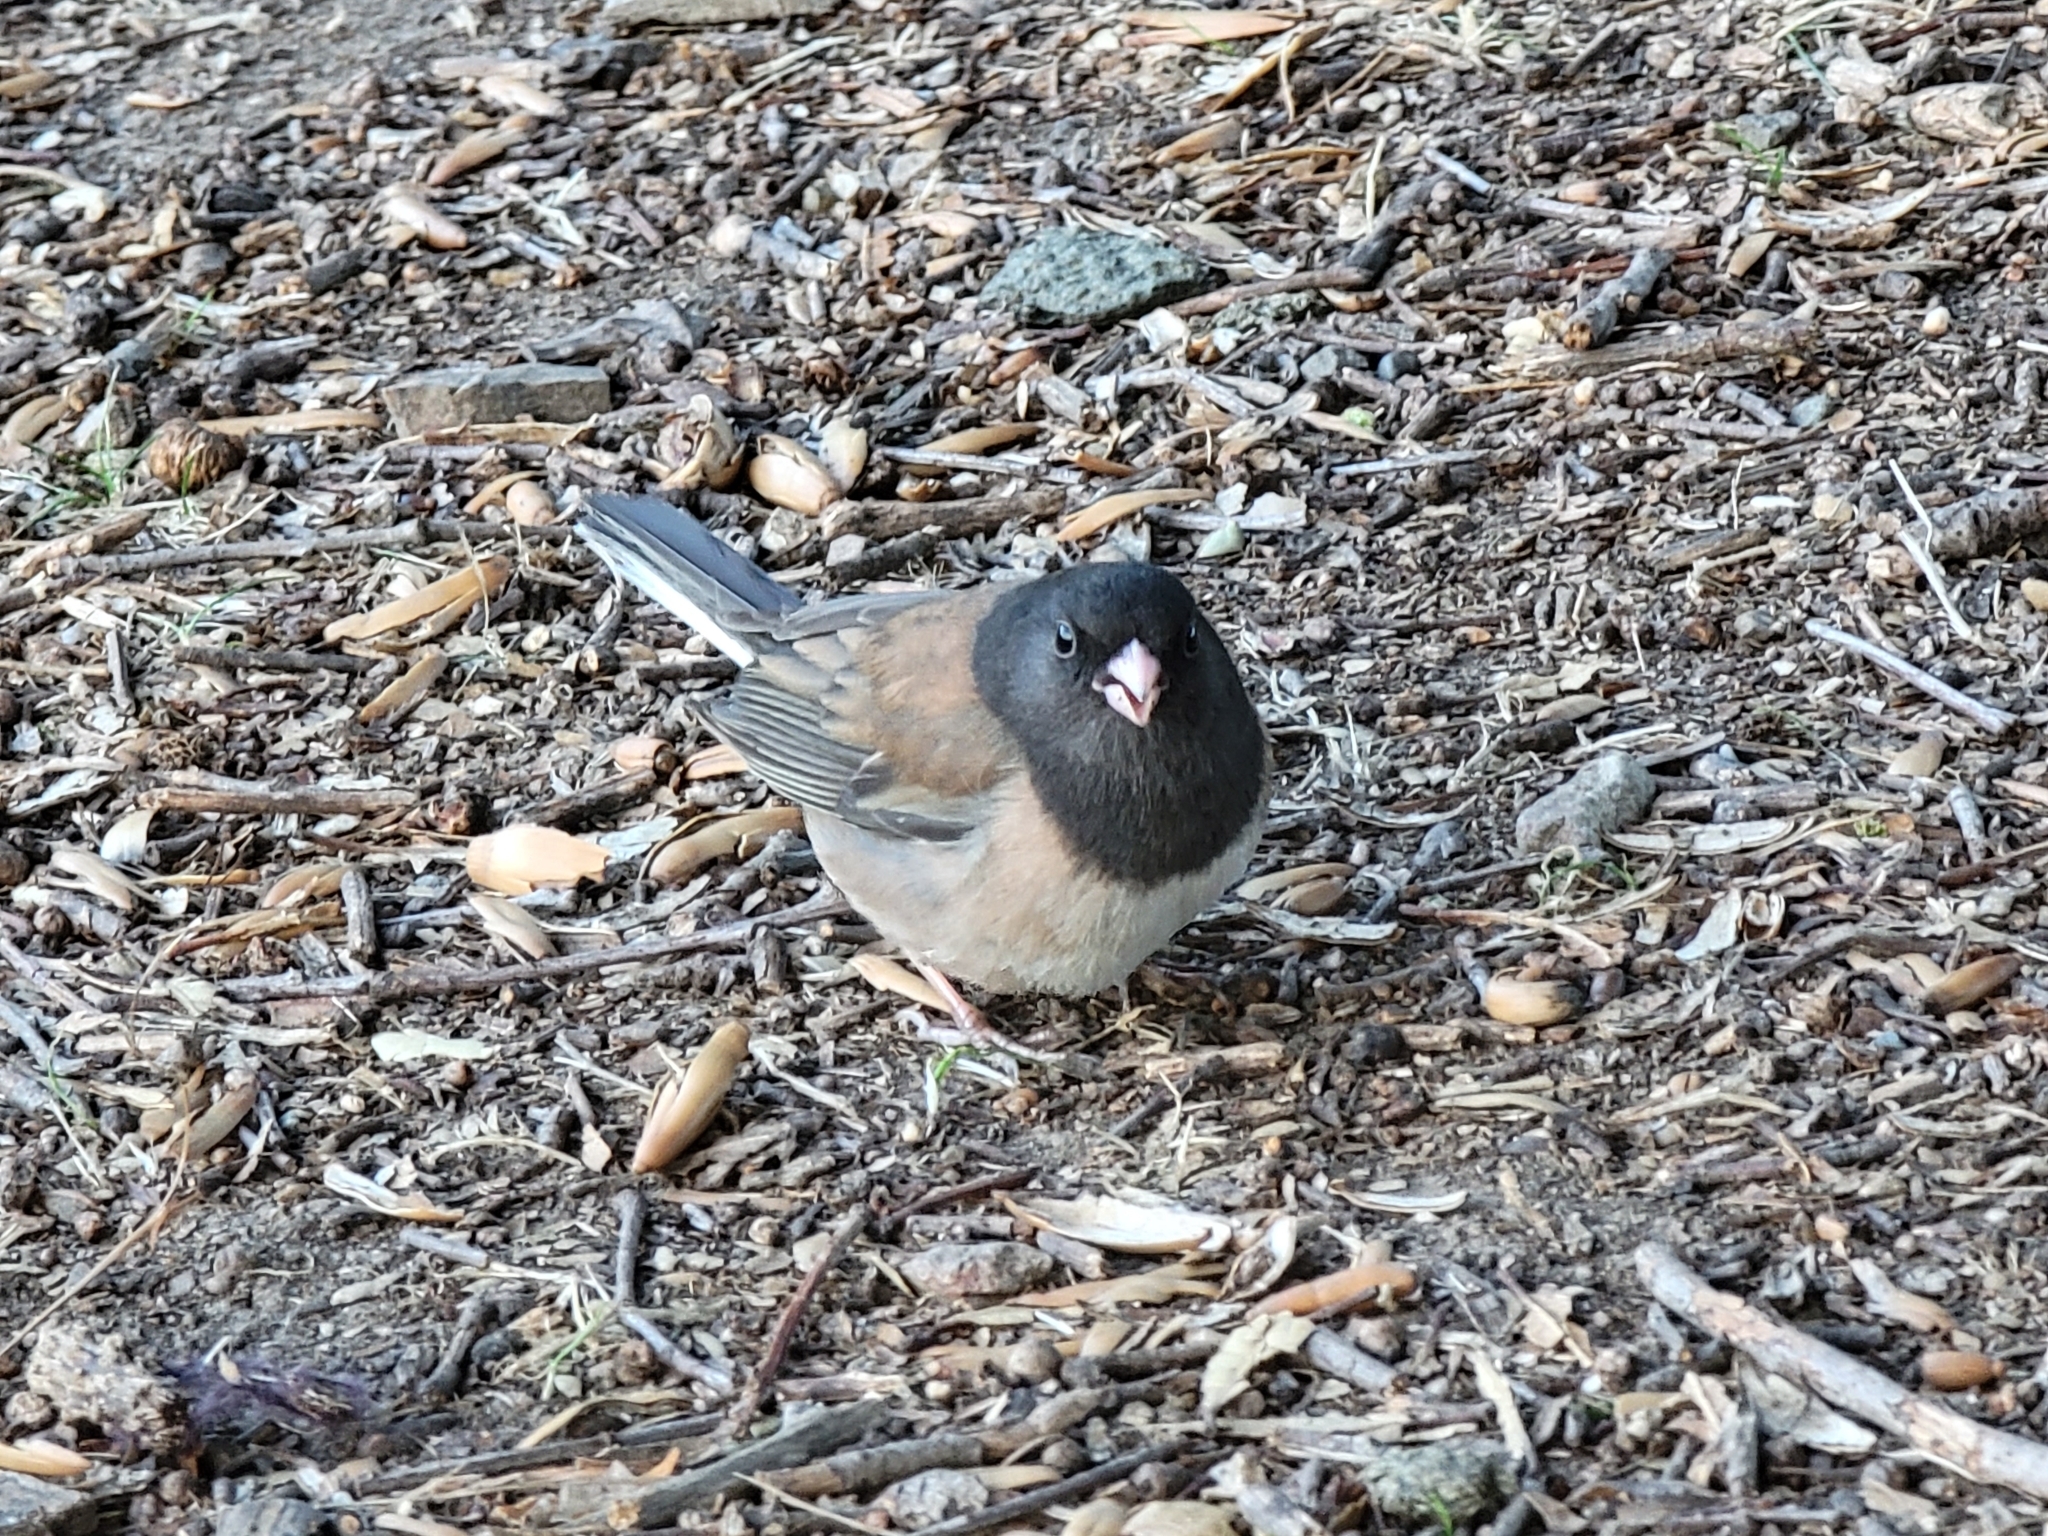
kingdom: Animalia
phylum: Chordata
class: Aves
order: Passeriformes
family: Passerellidae
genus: Junco
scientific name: Junco hyemalis
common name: Dark-eyed junco
